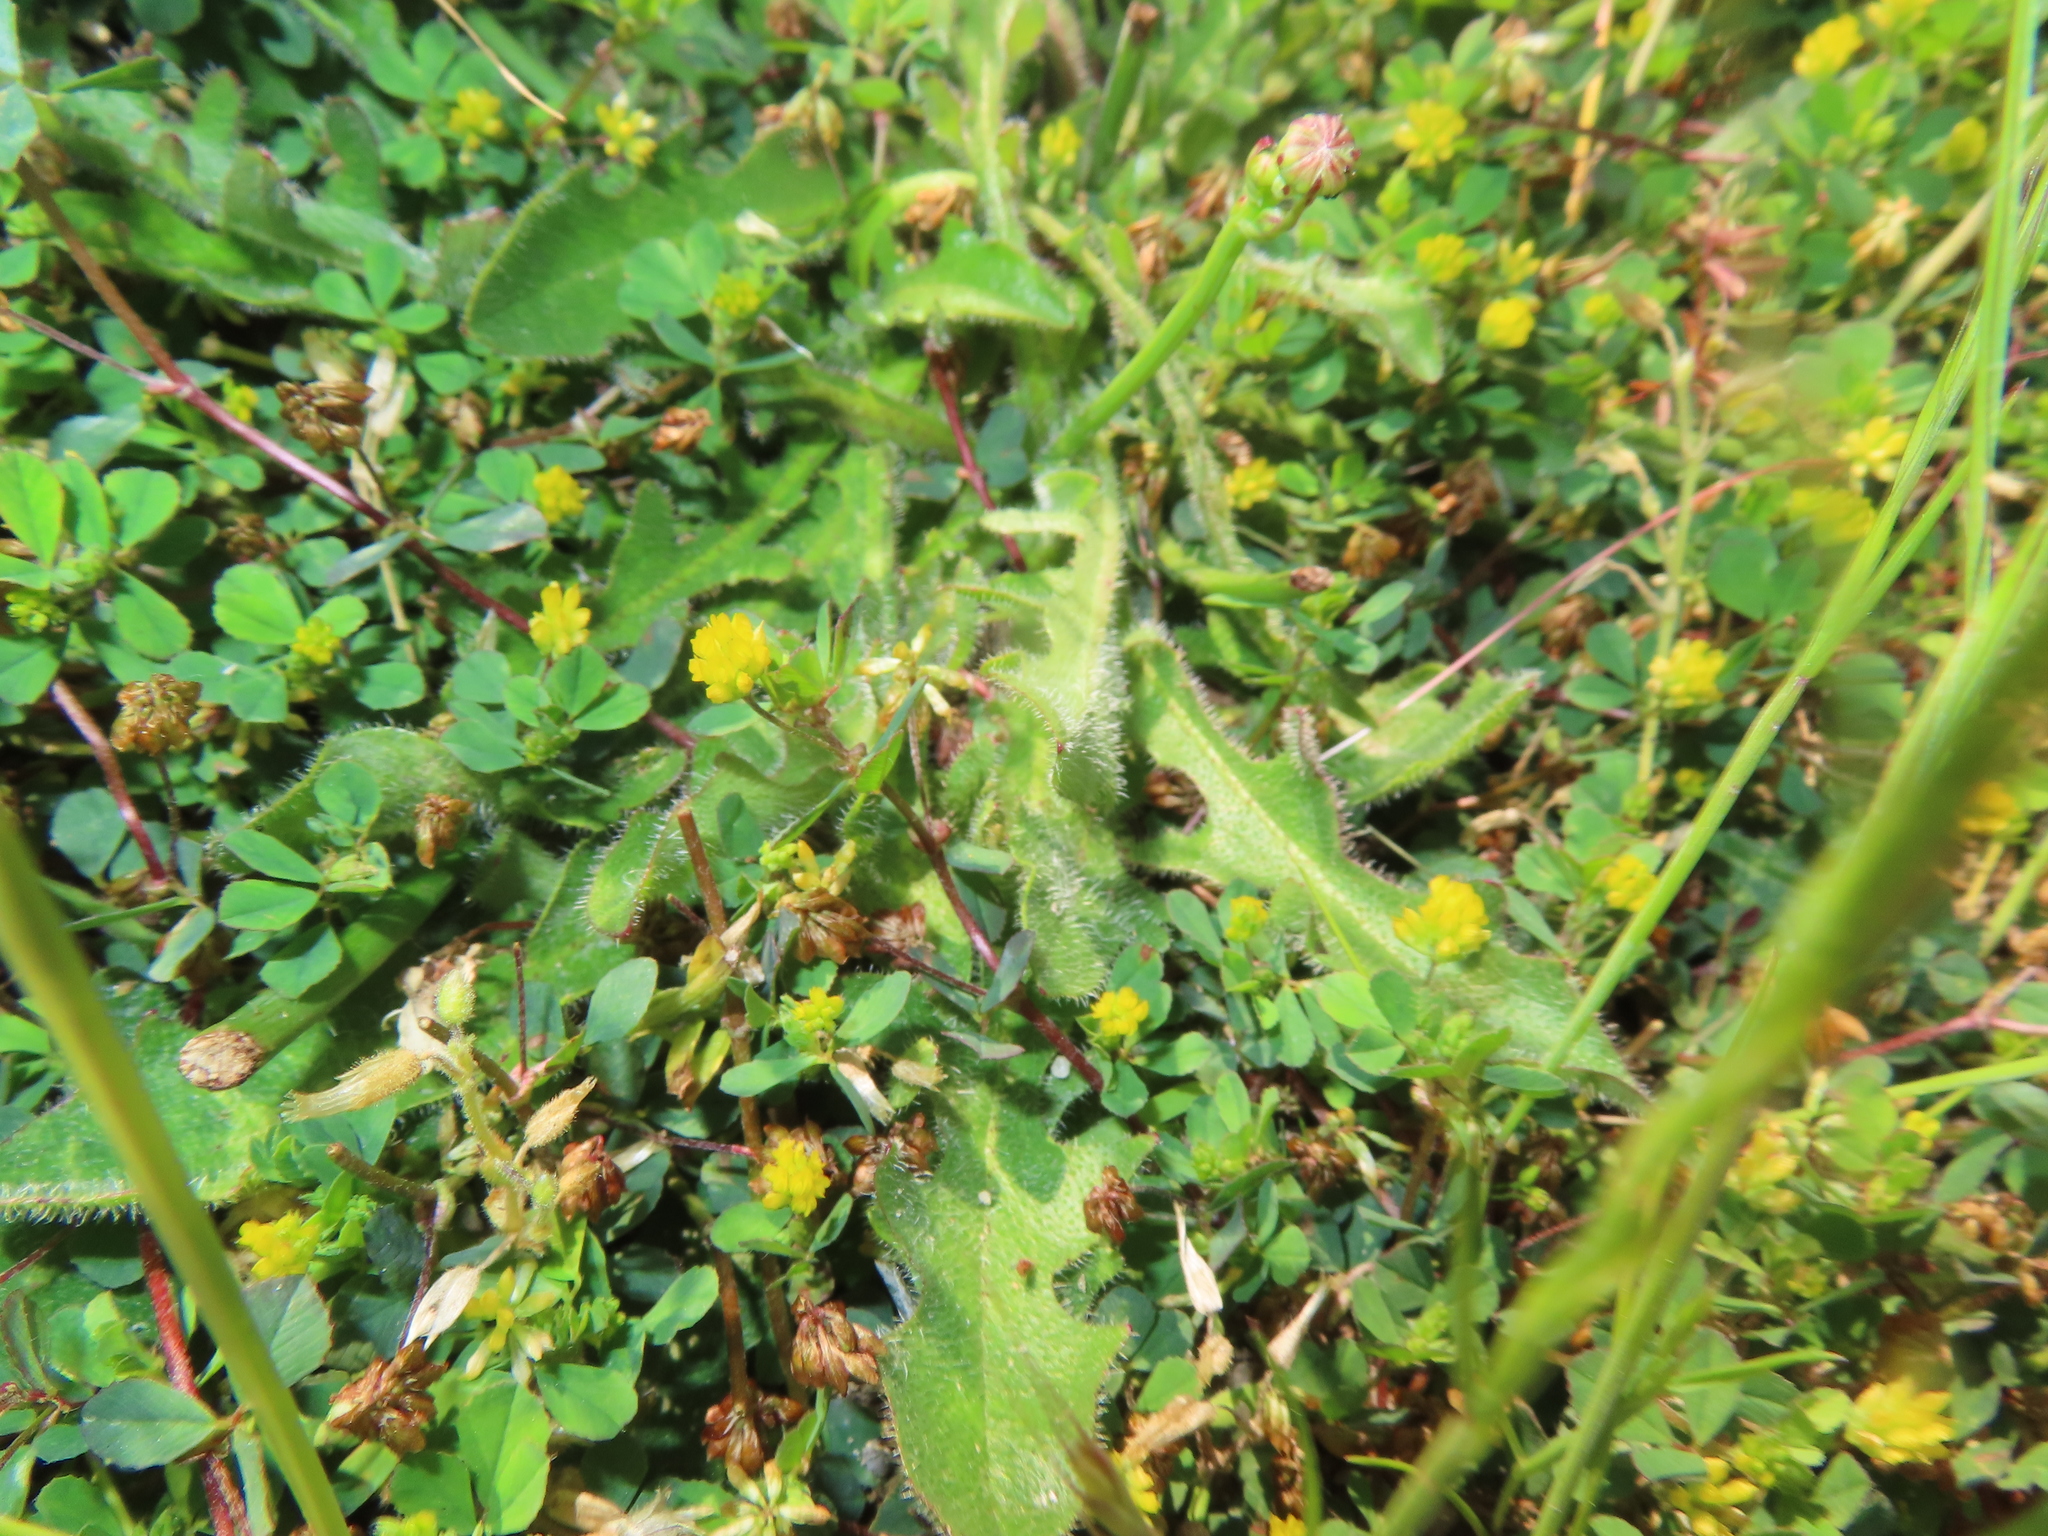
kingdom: Plantae
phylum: Tracheophyta
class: Magnoliopsida
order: Fabales
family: Fabaceae
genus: Trifolium
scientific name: Trifolium dubium
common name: Suckling clover
